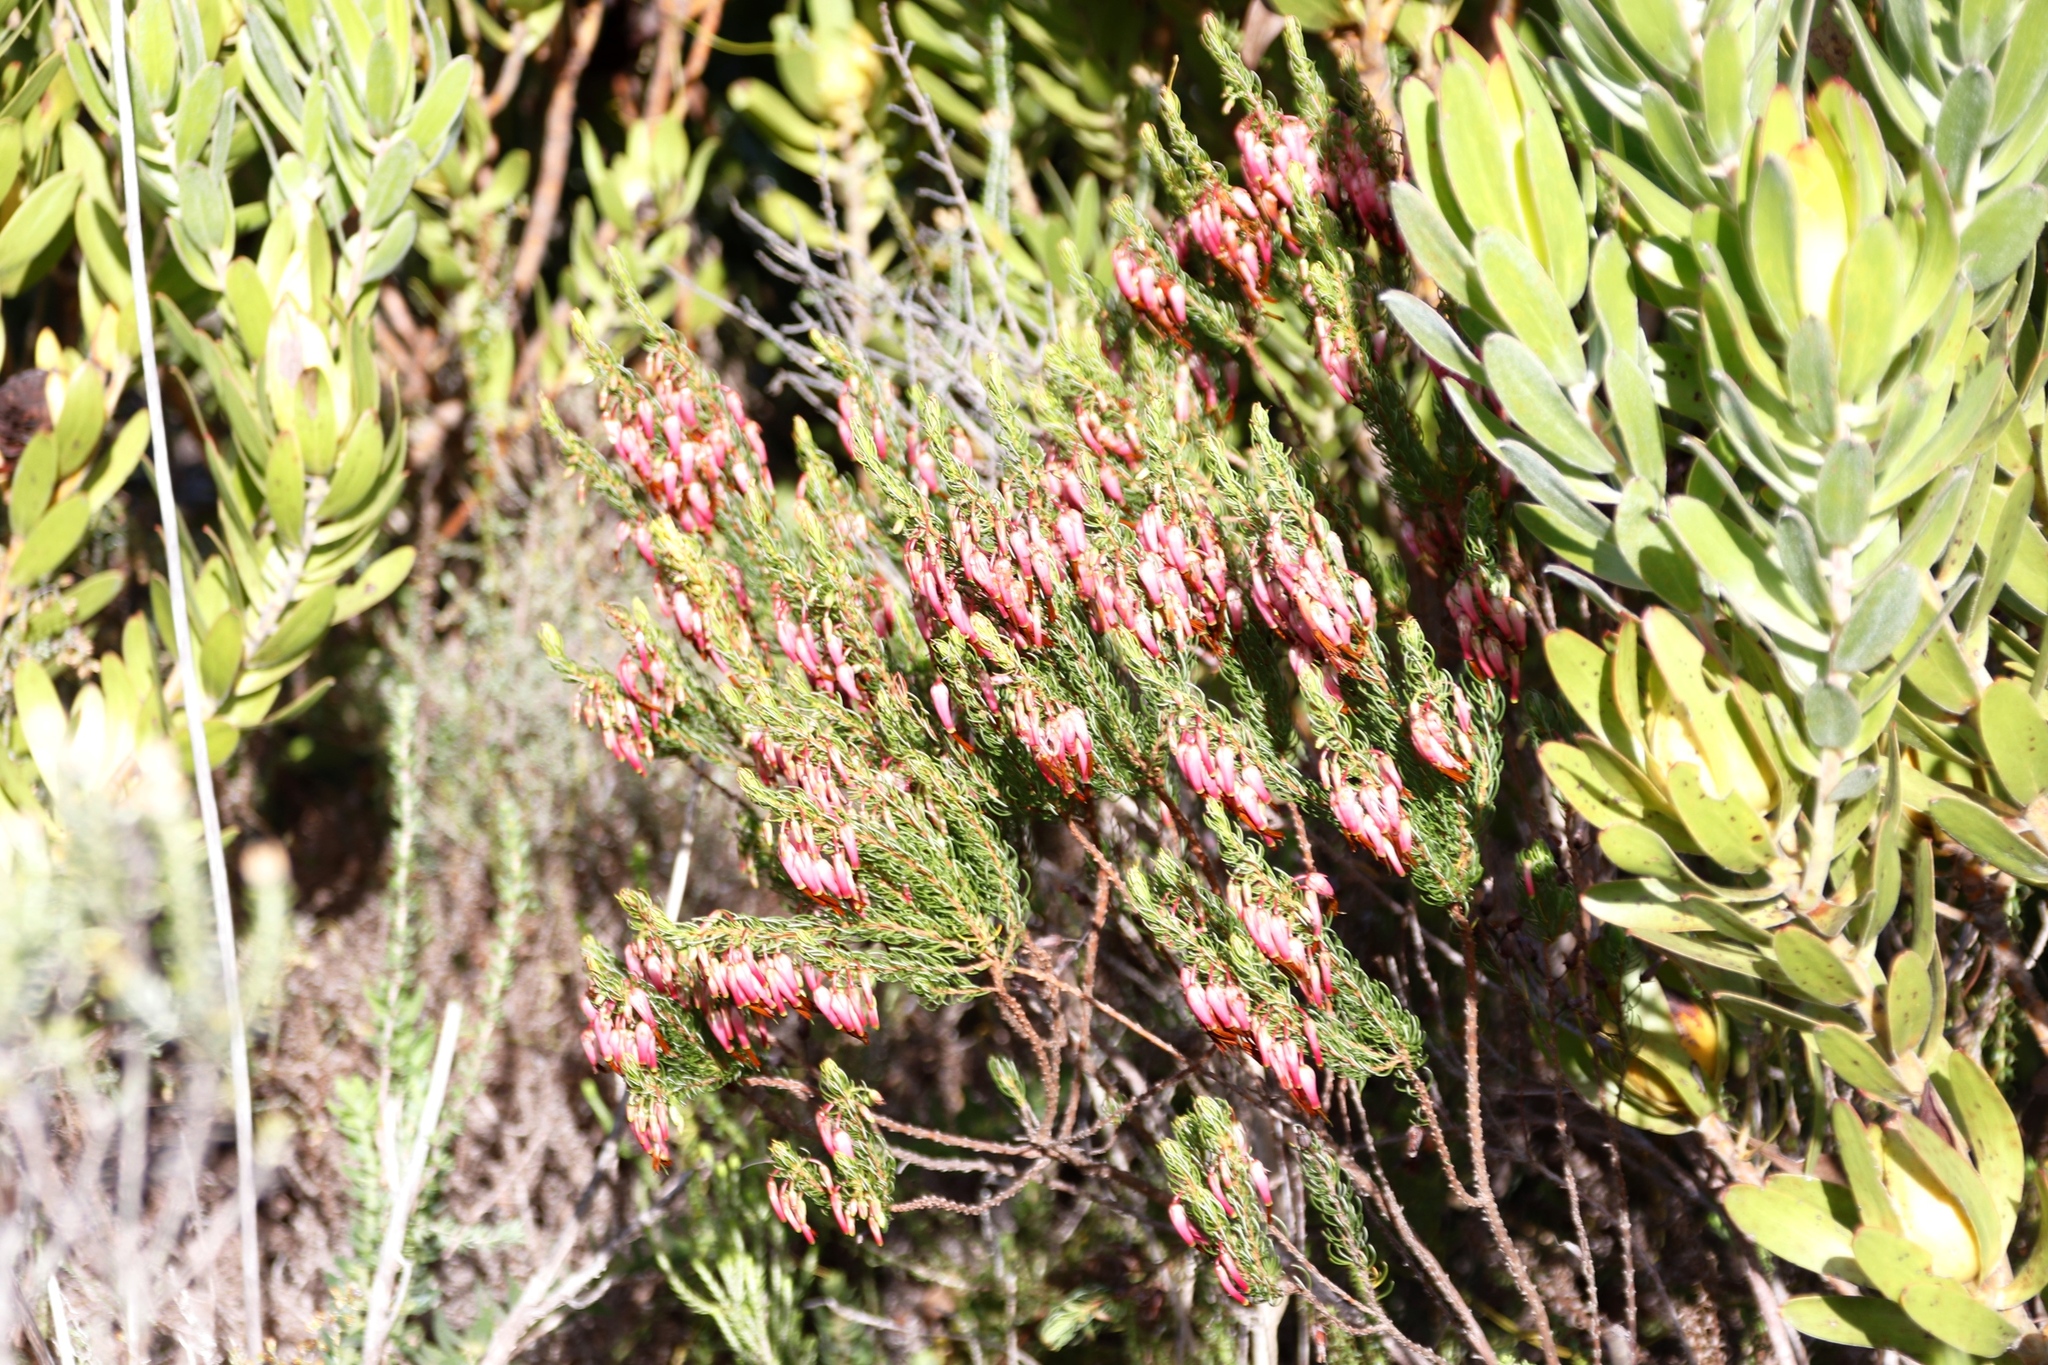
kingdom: Plantae
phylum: Tracheophyta
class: Magnoliopsida
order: Ericales
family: Ericaceae
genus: Erica
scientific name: Erica plukenetii
